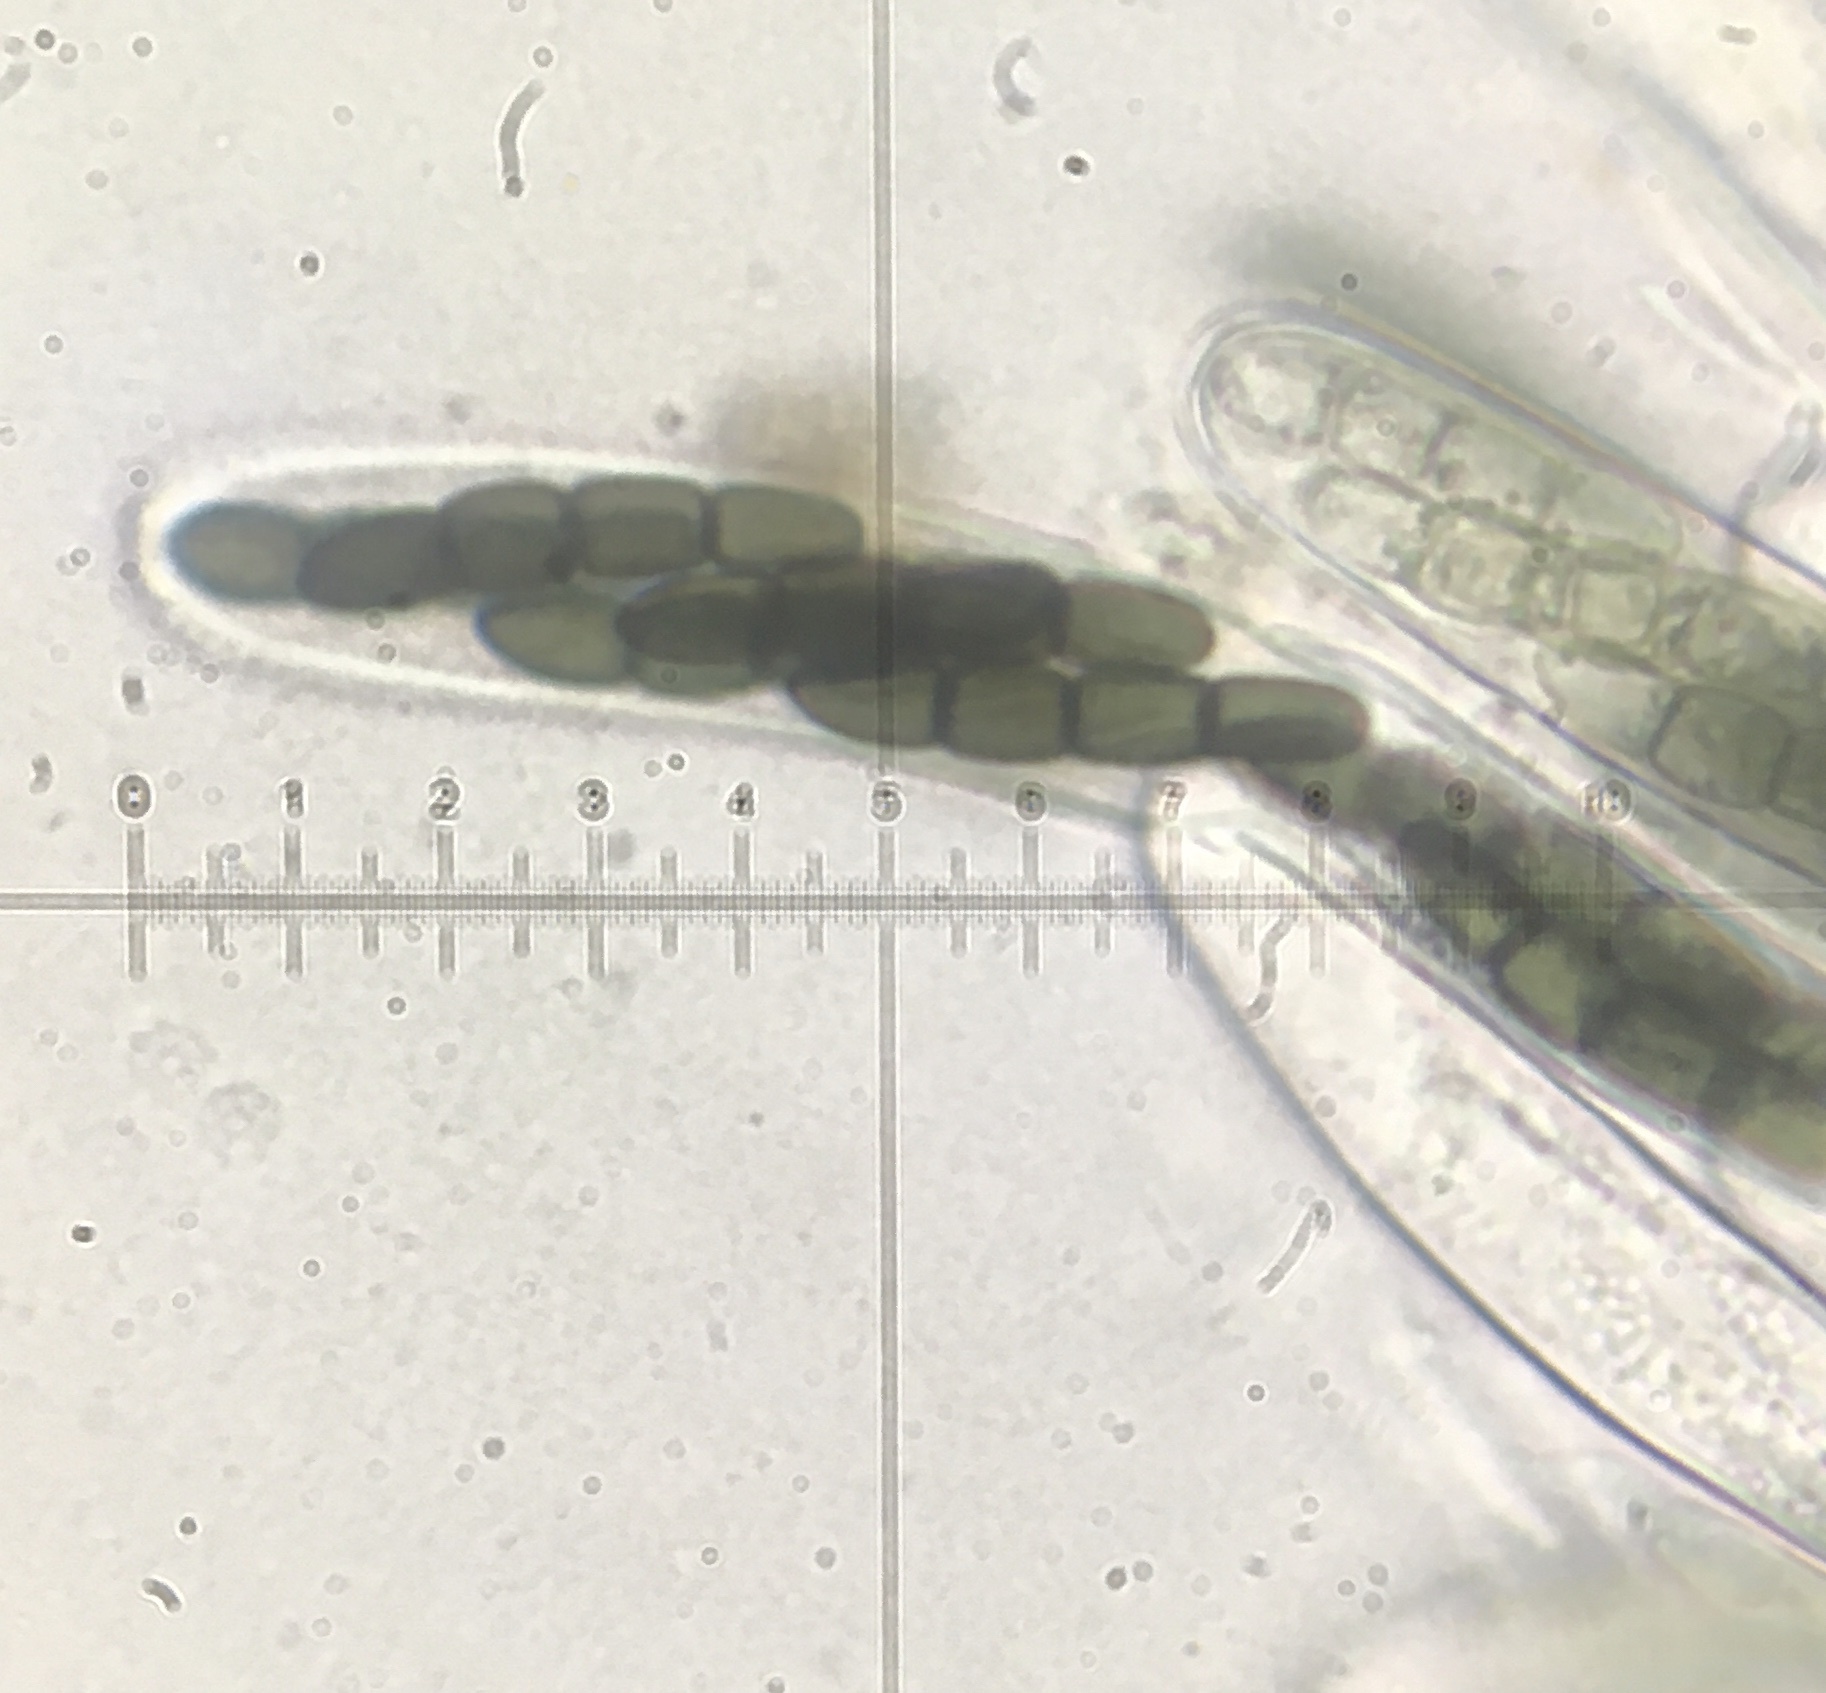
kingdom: Fungi
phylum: Ascomycota
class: Dothideomycetes
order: Pleosporales
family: Sporormiaceae
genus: Sporormiella
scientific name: Sporormiella australis
